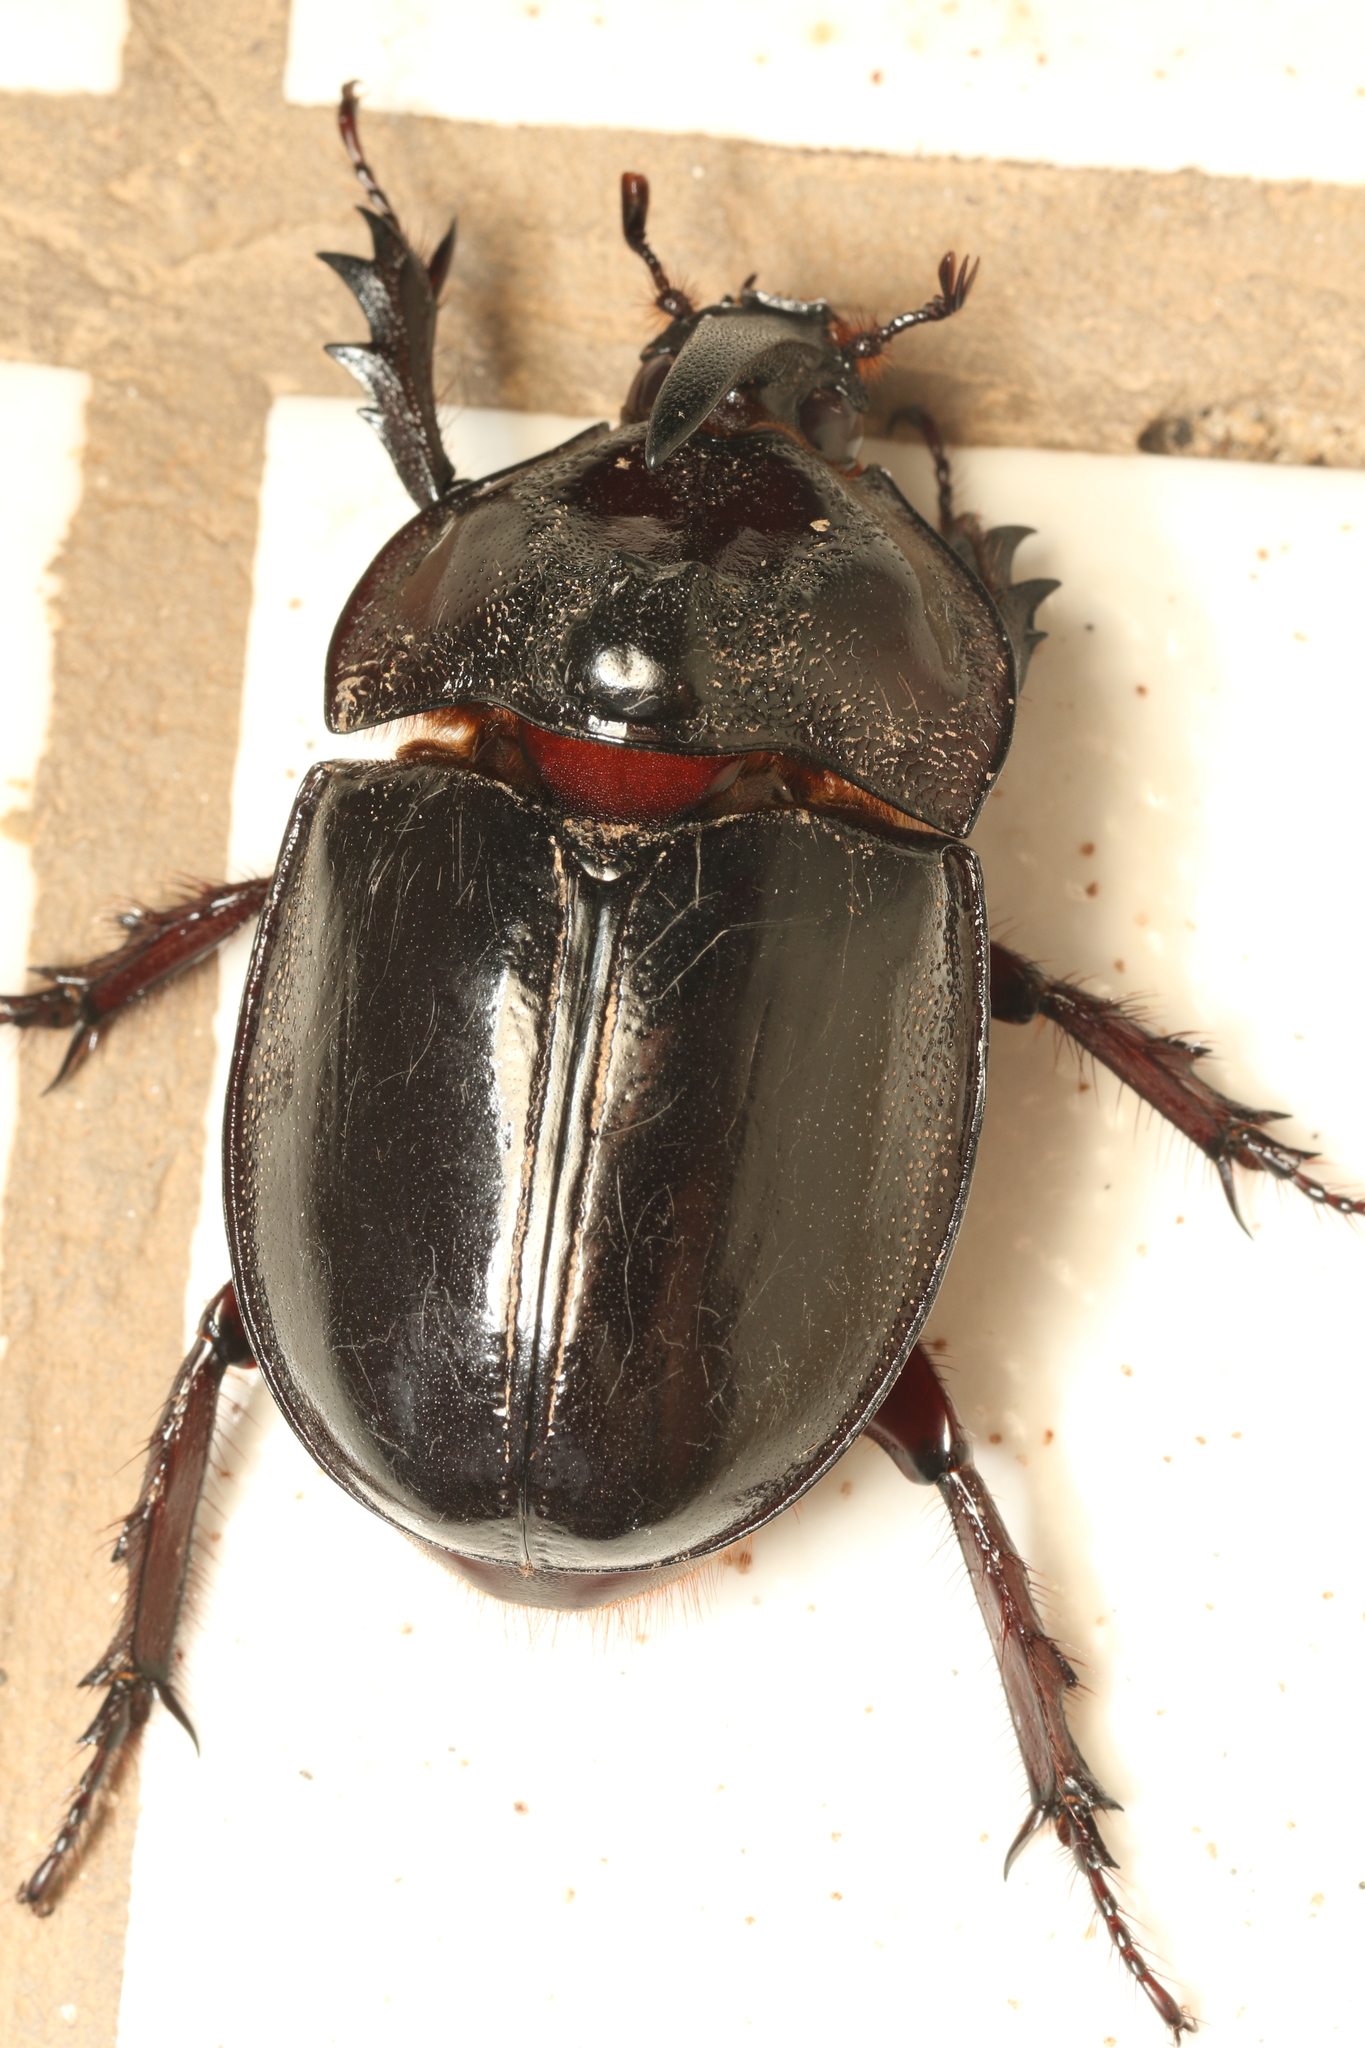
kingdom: Animalia
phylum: Arthropoda
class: Insecta
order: Coleoptera
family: Scarabaeidae
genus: Enema
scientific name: Enema pan
